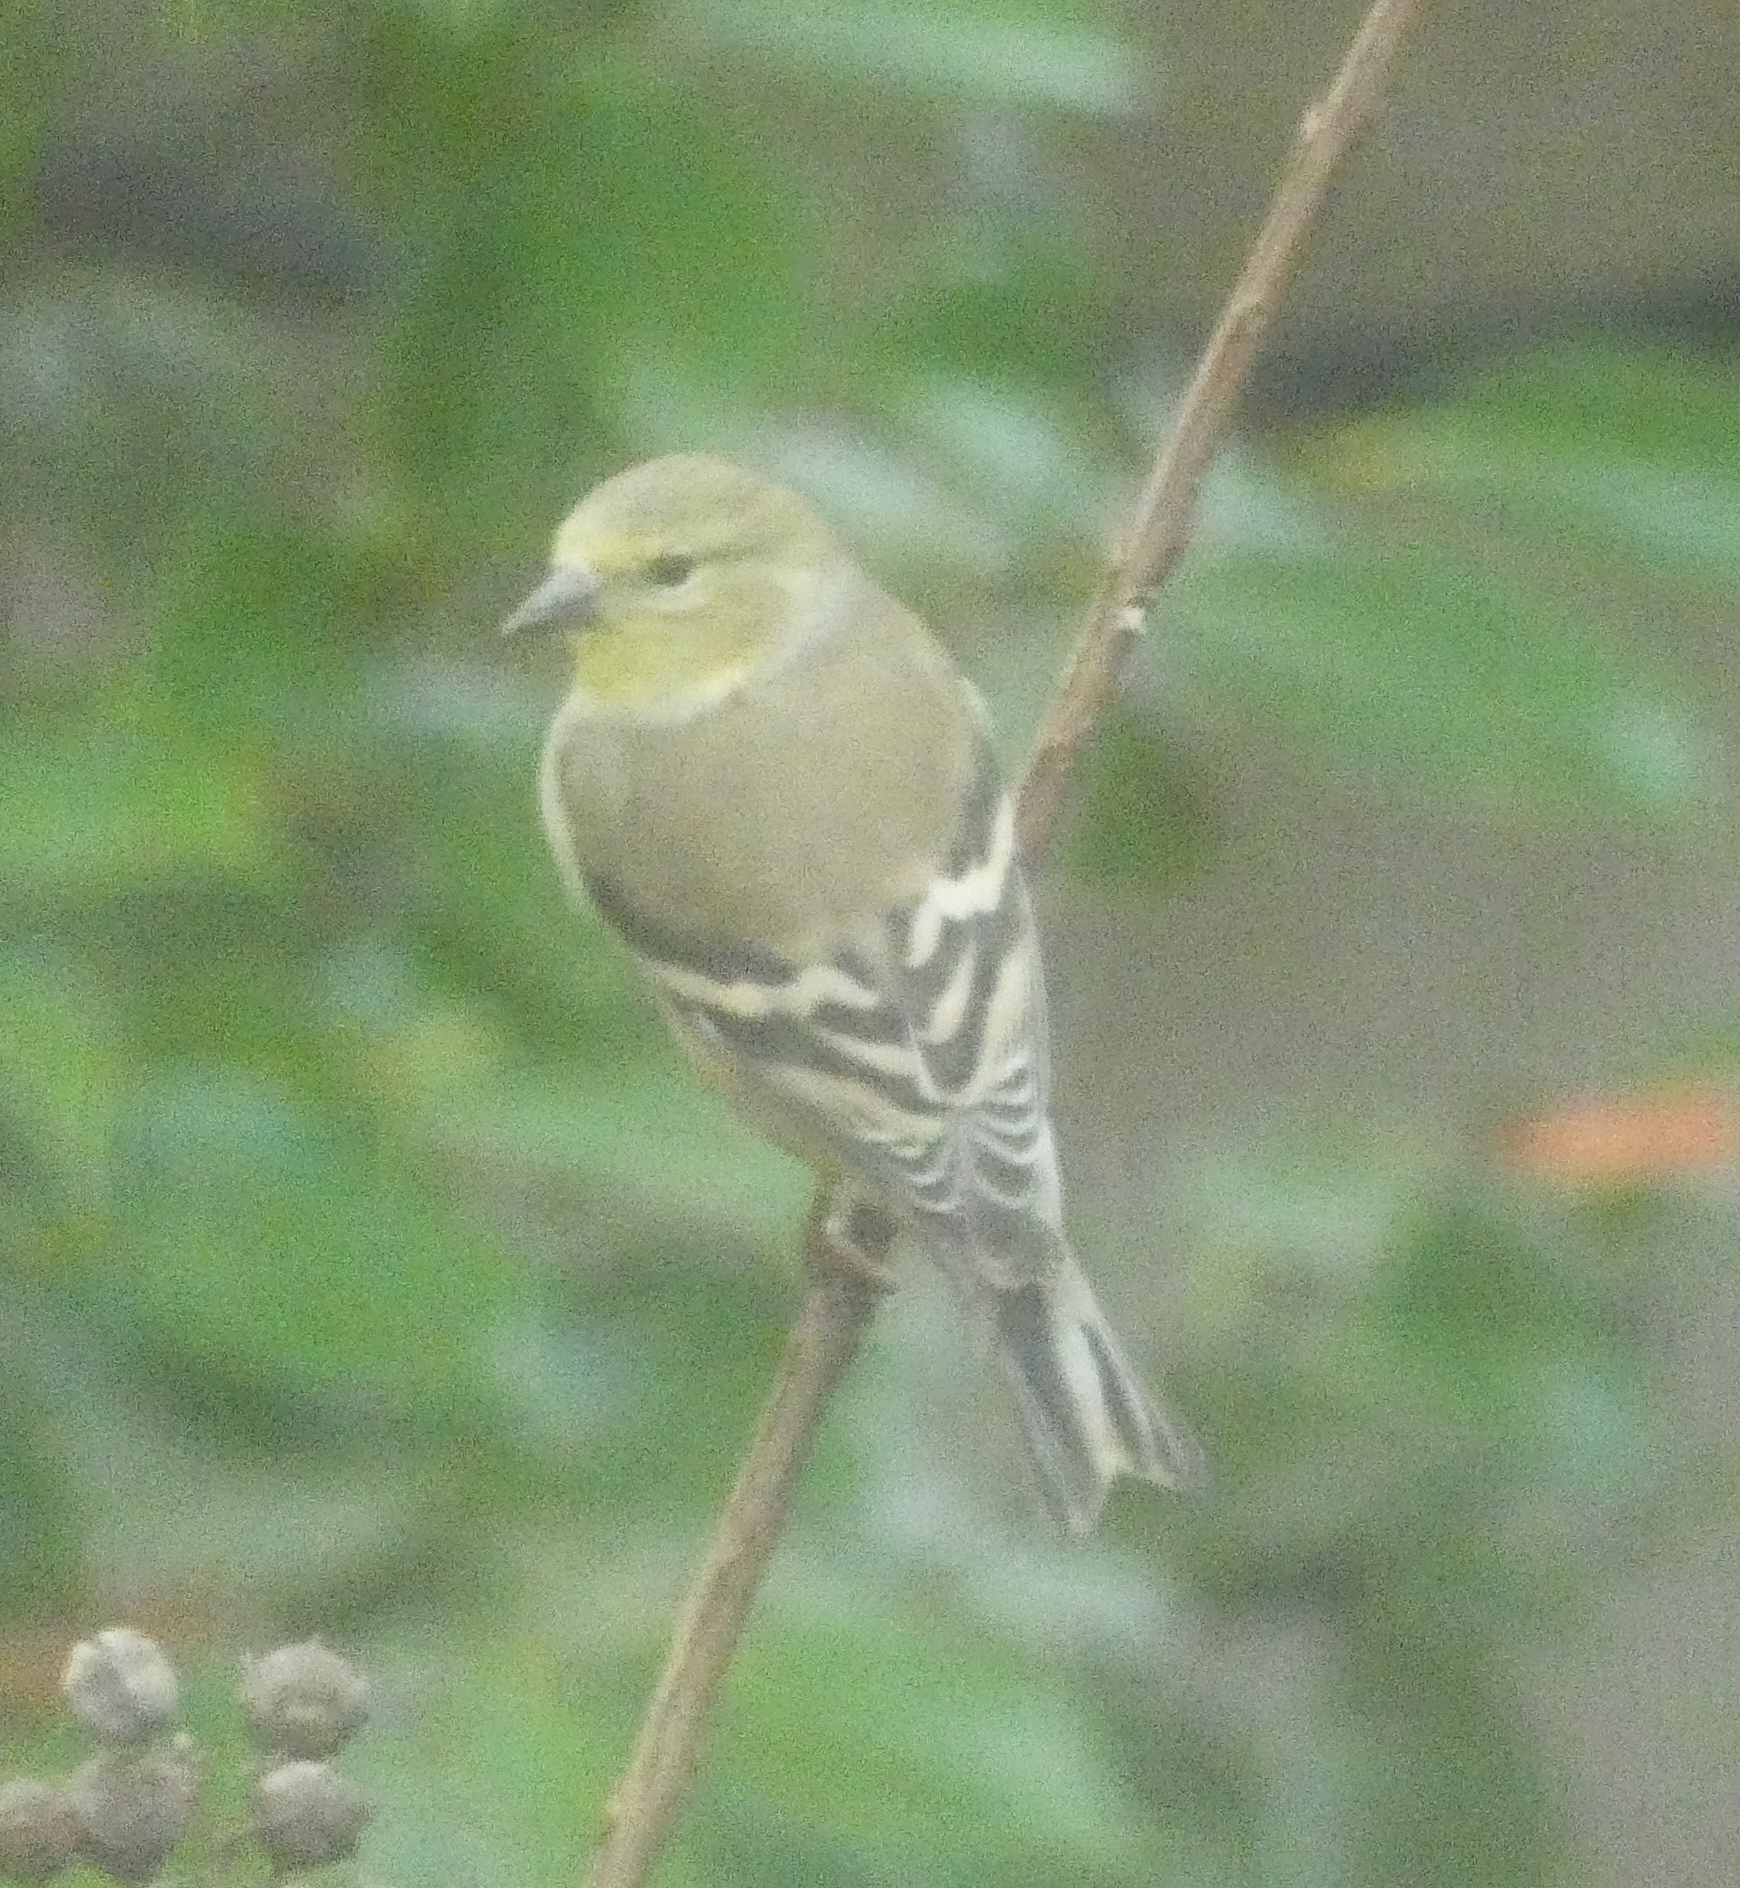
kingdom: Animalia
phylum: Chordata
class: Aves
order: Passeriformes
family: Fringillidae
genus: Spinus
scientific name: Spinus tristis
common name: American goldfinch
